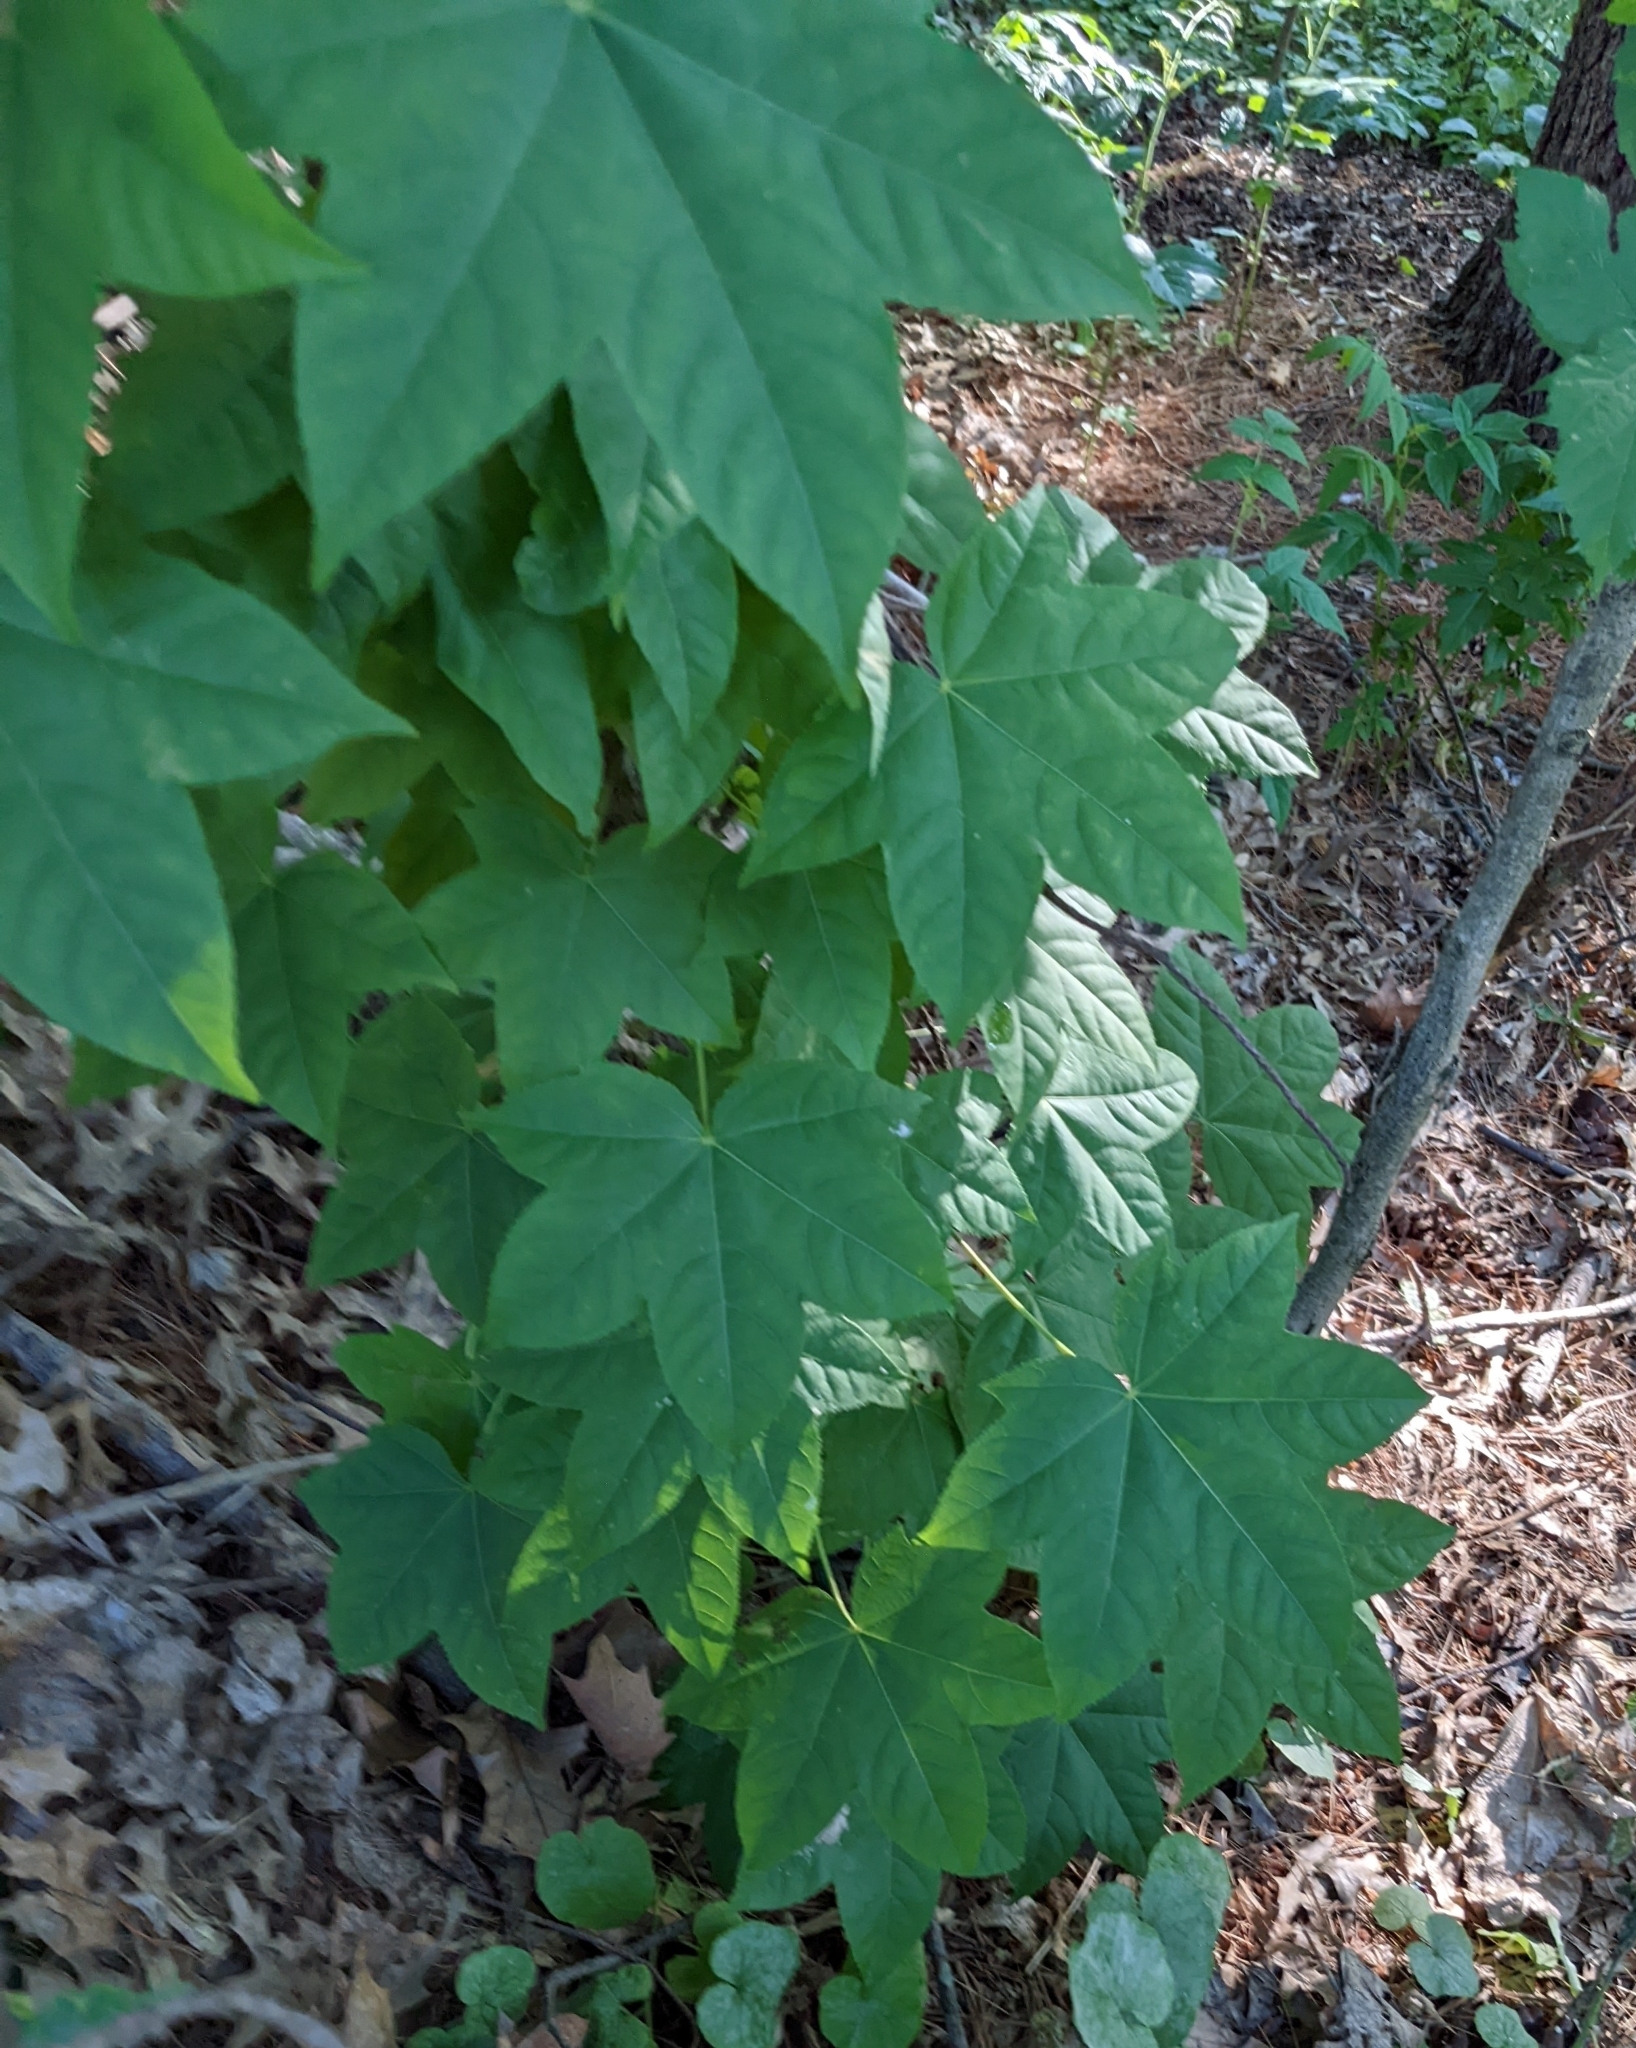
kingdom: Plantae
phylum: Tracheophyta
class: Magnoliopsida
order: Apiales
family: Araliaceae
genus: Kalopanax
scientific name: Kalopanax septemlobus
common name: Castor aralia
